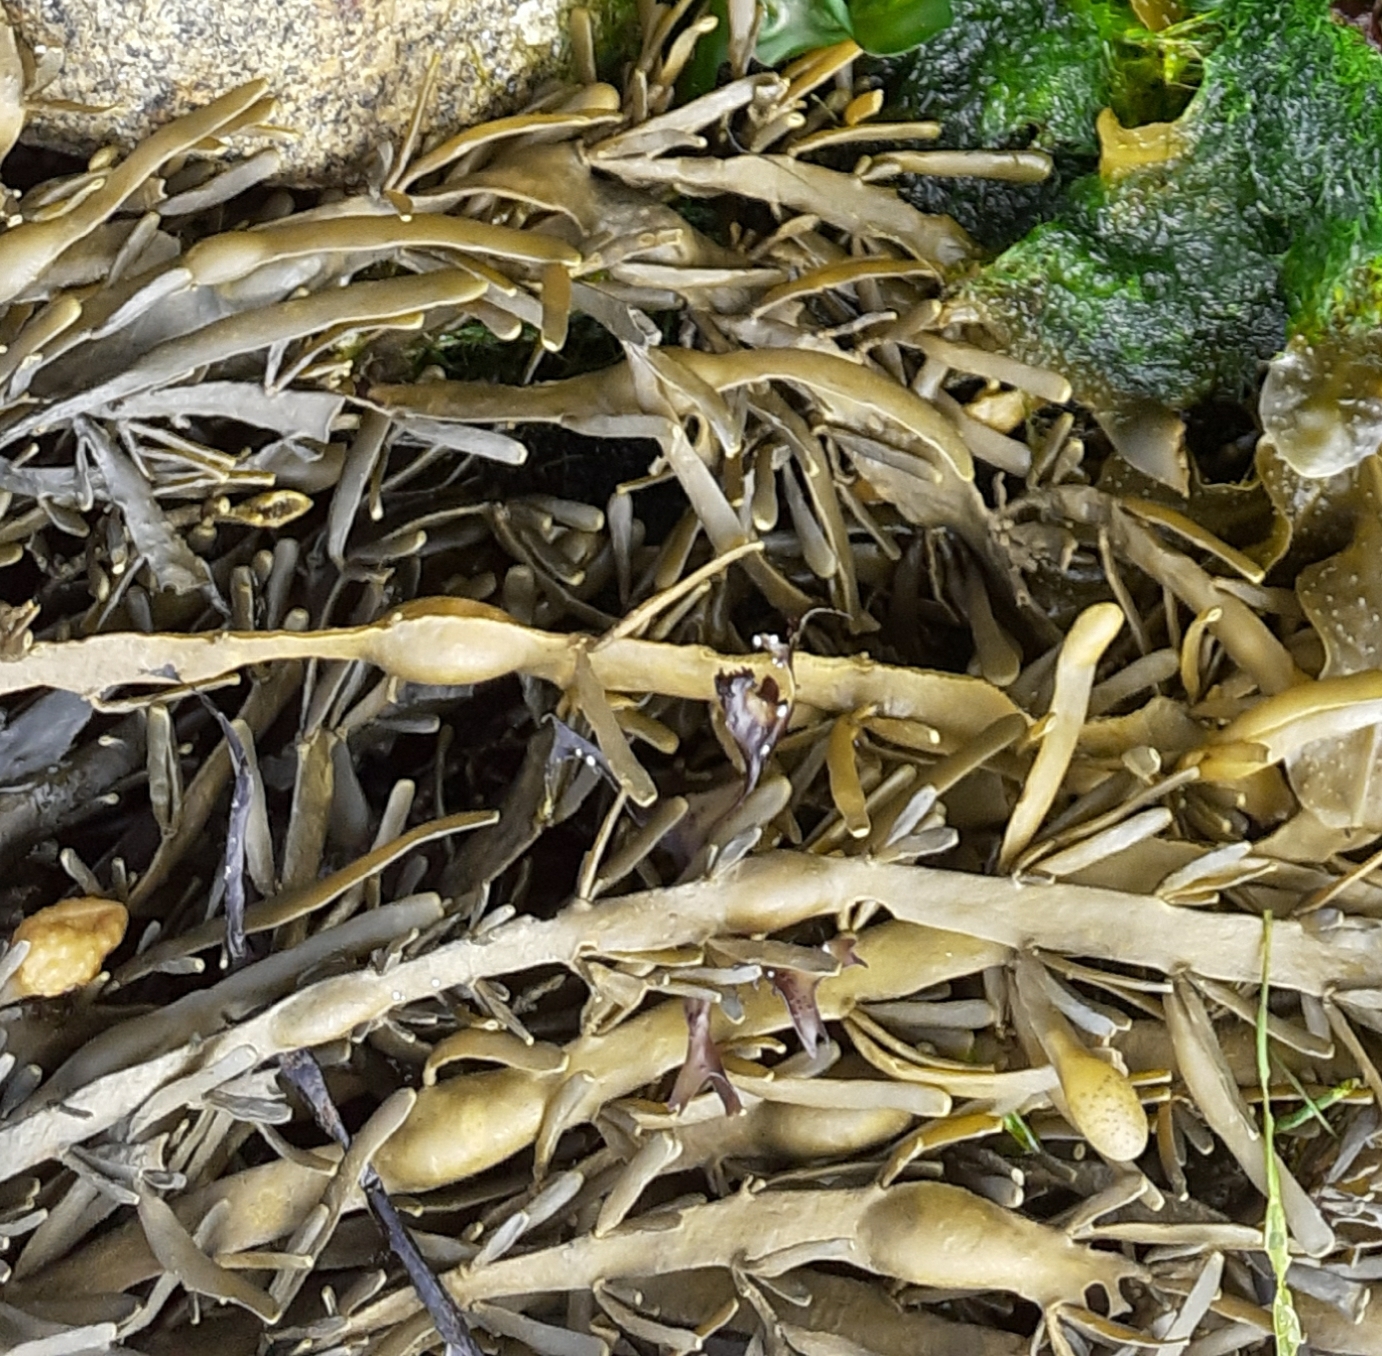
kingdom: Chromista
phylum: Ochrophyta
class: Phaeophyceae
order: Fucales
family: Fucaceae
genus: Ascophyllum
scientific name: Ascophyllum nodosum
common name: Knotted wrack
